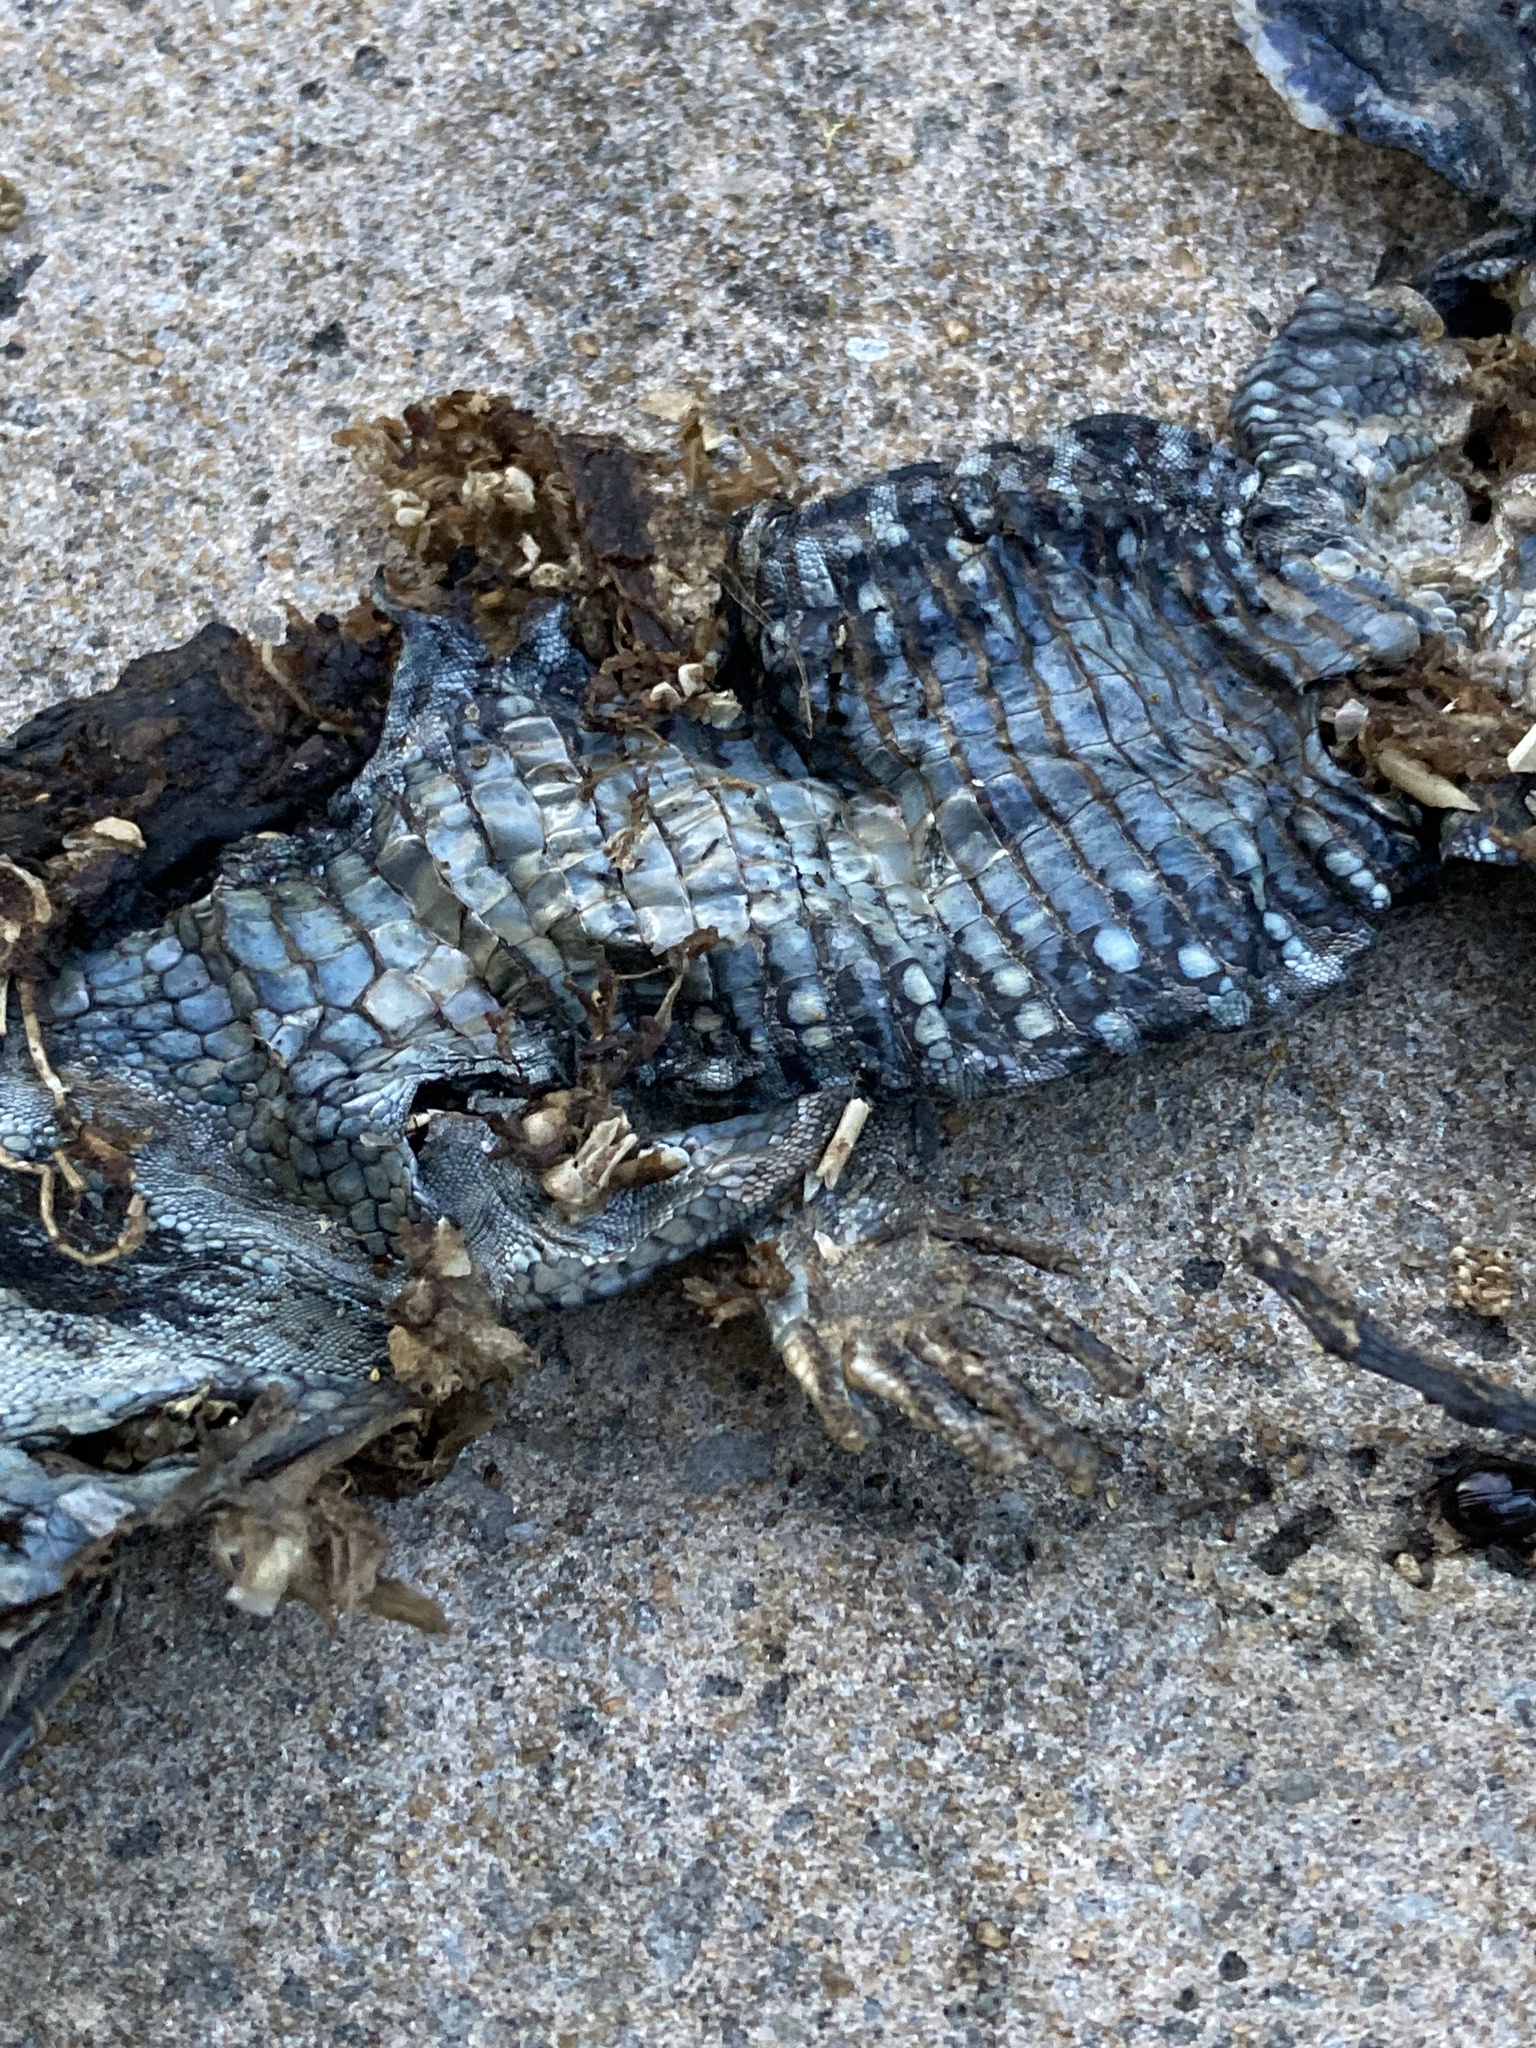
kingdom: Animalia
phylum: Chordata
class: Squamata
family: Teiidae
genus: Ameiva
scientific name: Ameiva ameiva
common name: Giant ameiva
